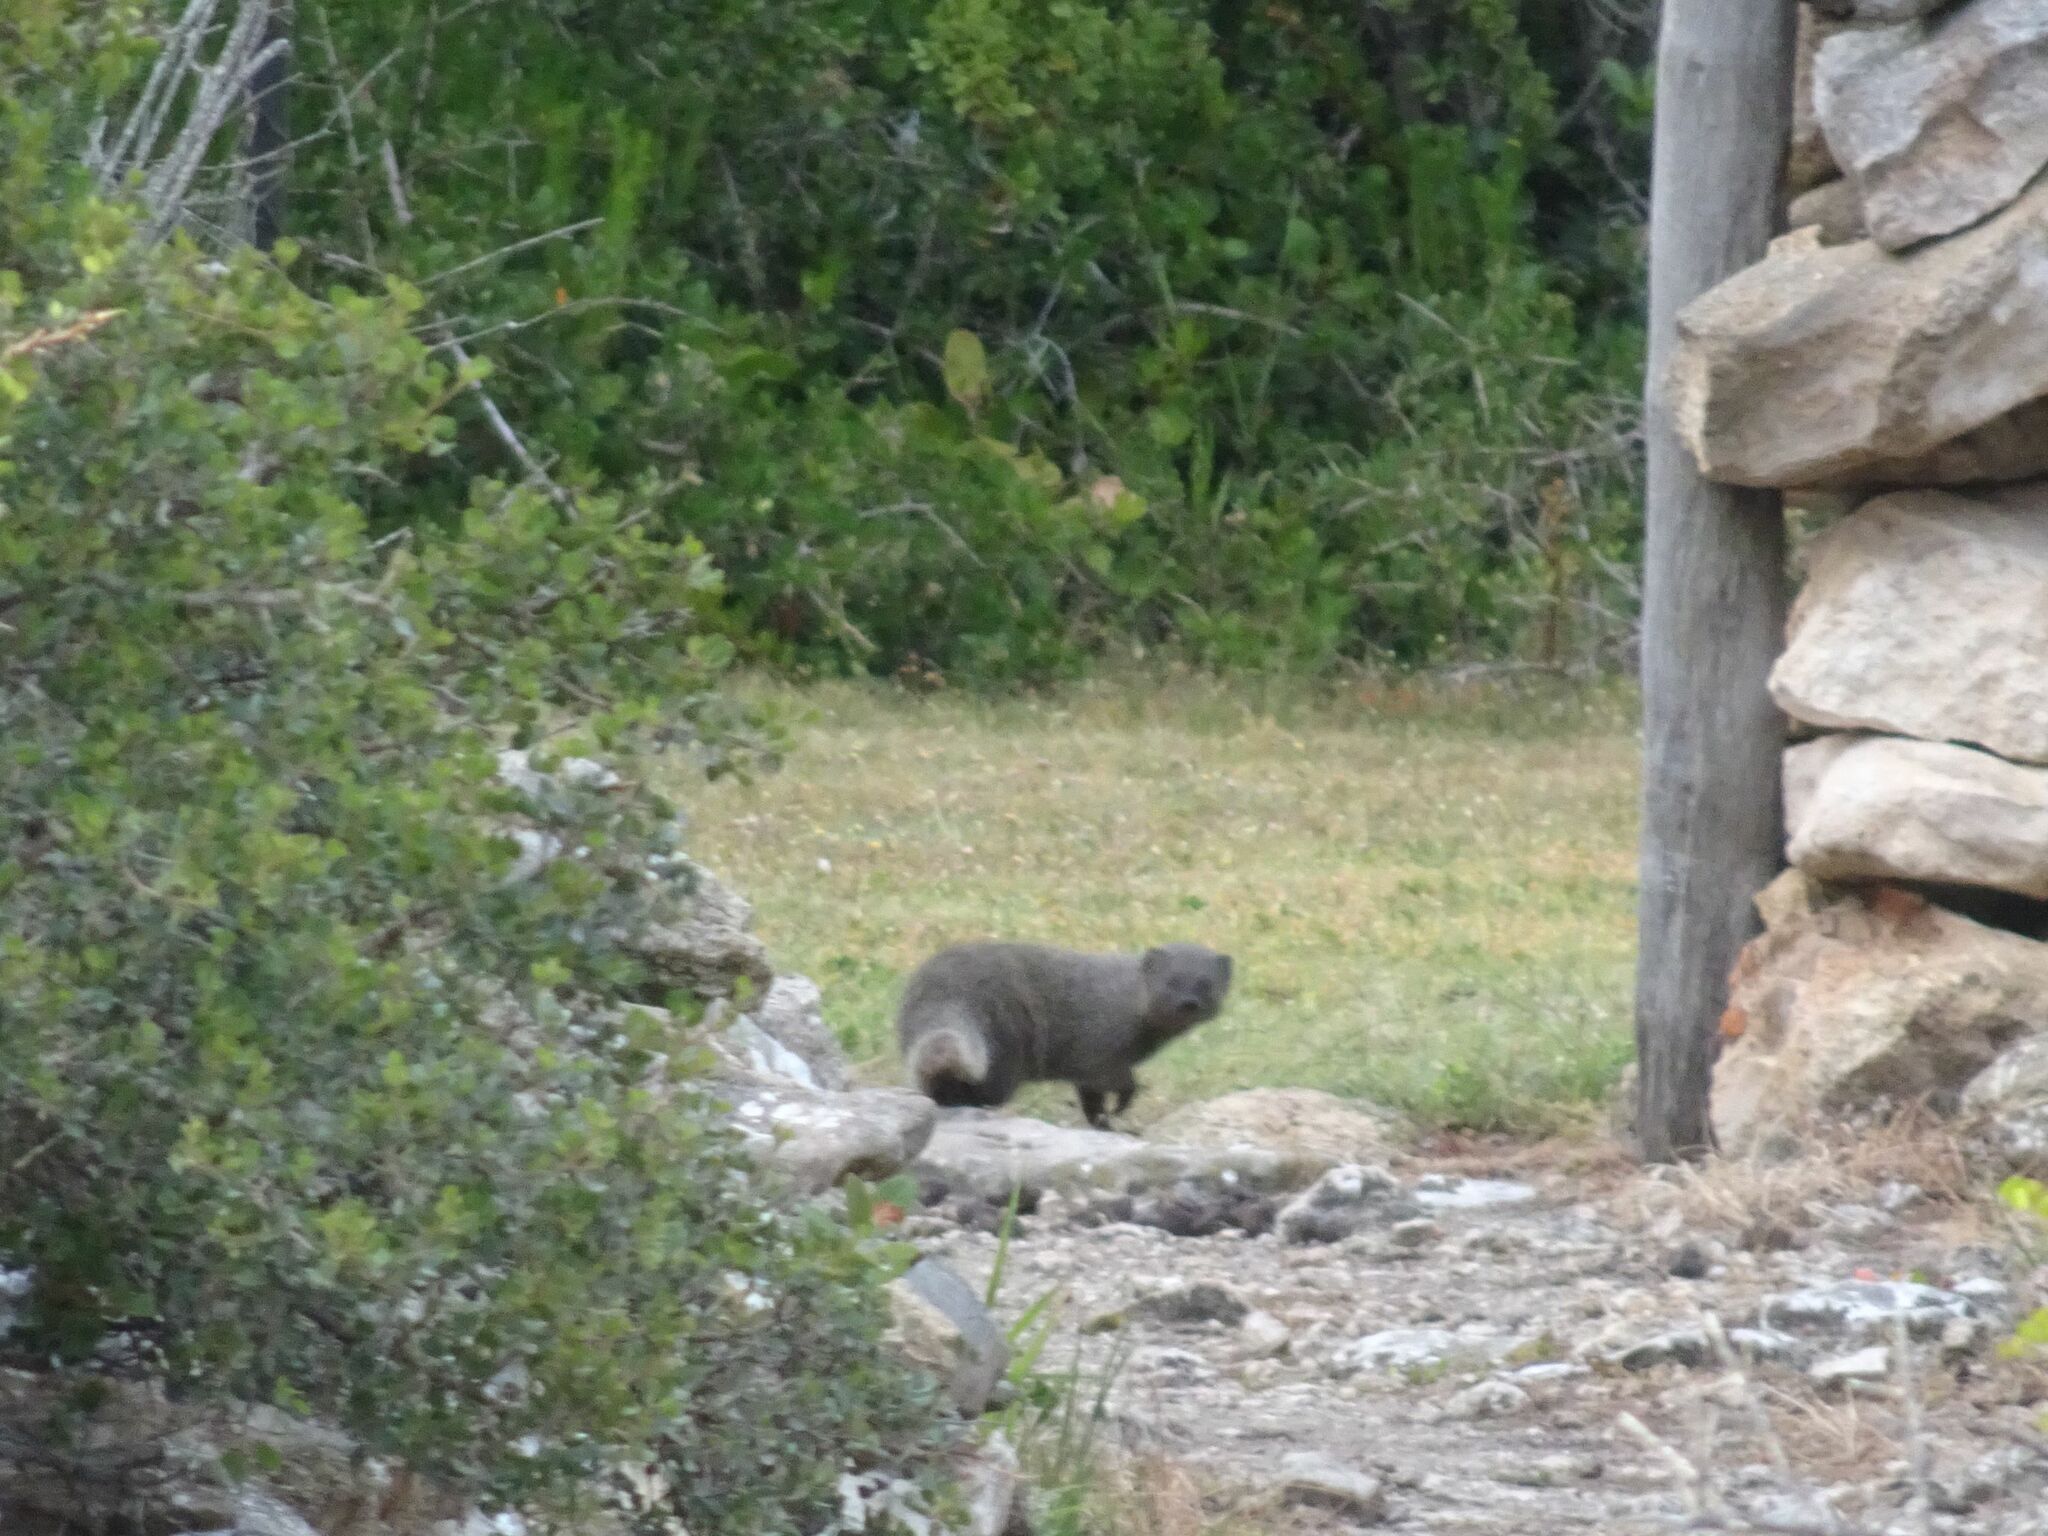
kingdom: Animalia
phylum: Chordata
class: Mammalia
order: Carnivora
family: Herpestidae
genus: Galerella
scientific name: Galerella pulverulenta
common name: Cape gray mongoose
